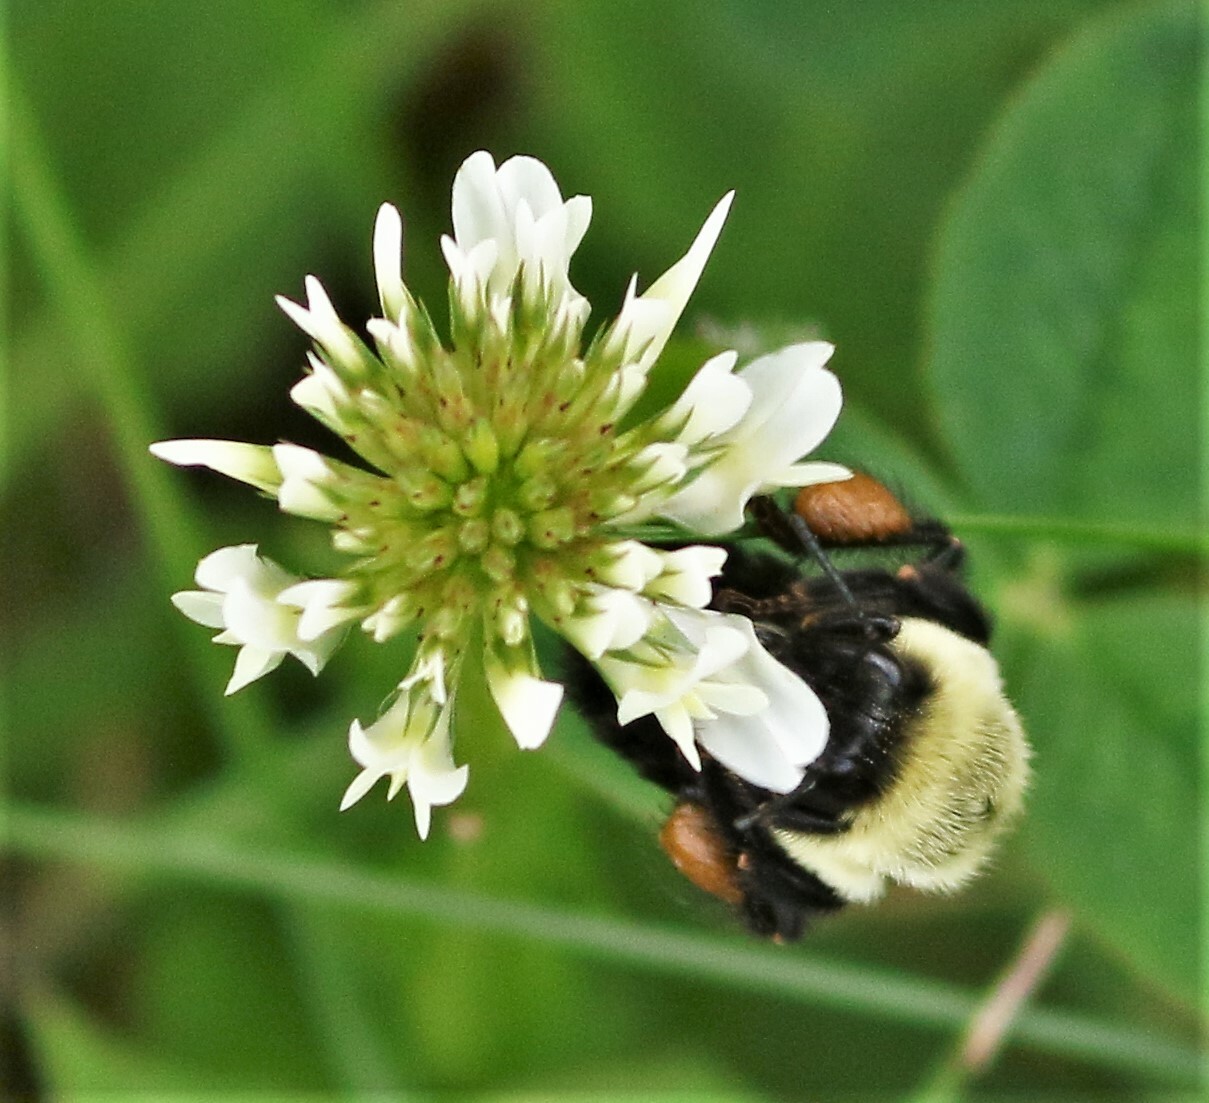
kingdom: Animalia
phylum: Arthropoda
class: Insecta
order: Hymenoptera
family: Apidae
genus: Bombus
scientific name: Bombus impatiens
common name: Common eastern bumble bee
